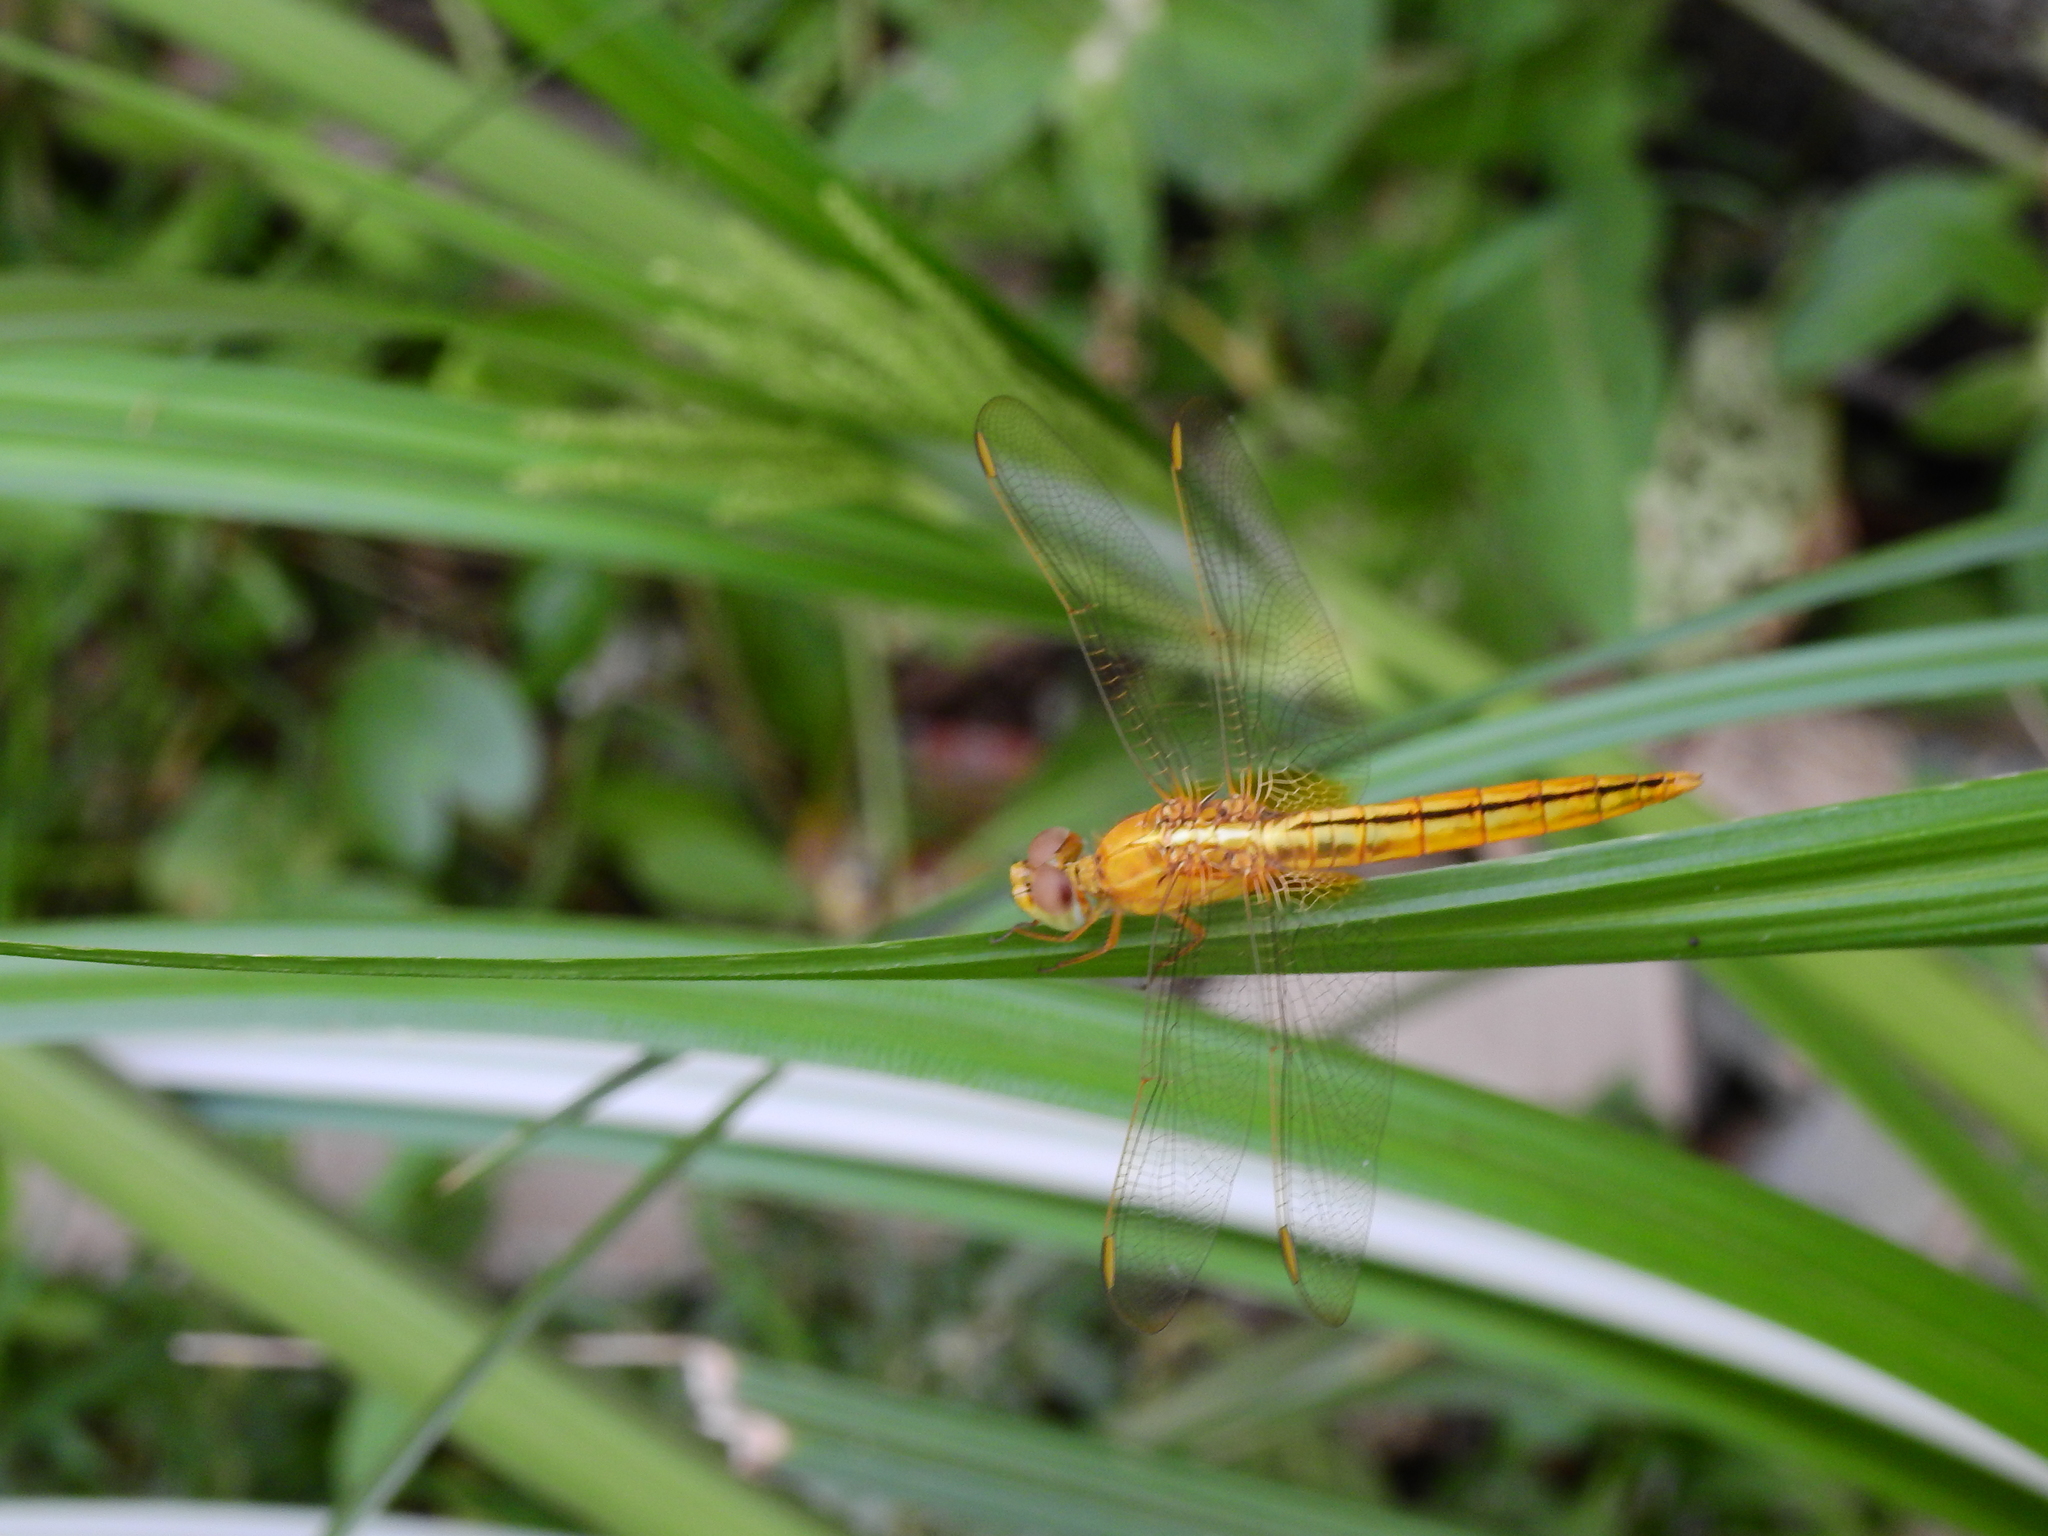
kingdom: Animalia
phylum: Arthropoda
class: Insecta
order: Odonata
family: Libellulidae
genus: Crocothemis
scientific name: Crocothemis servilia
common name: Scarlet skimmer
